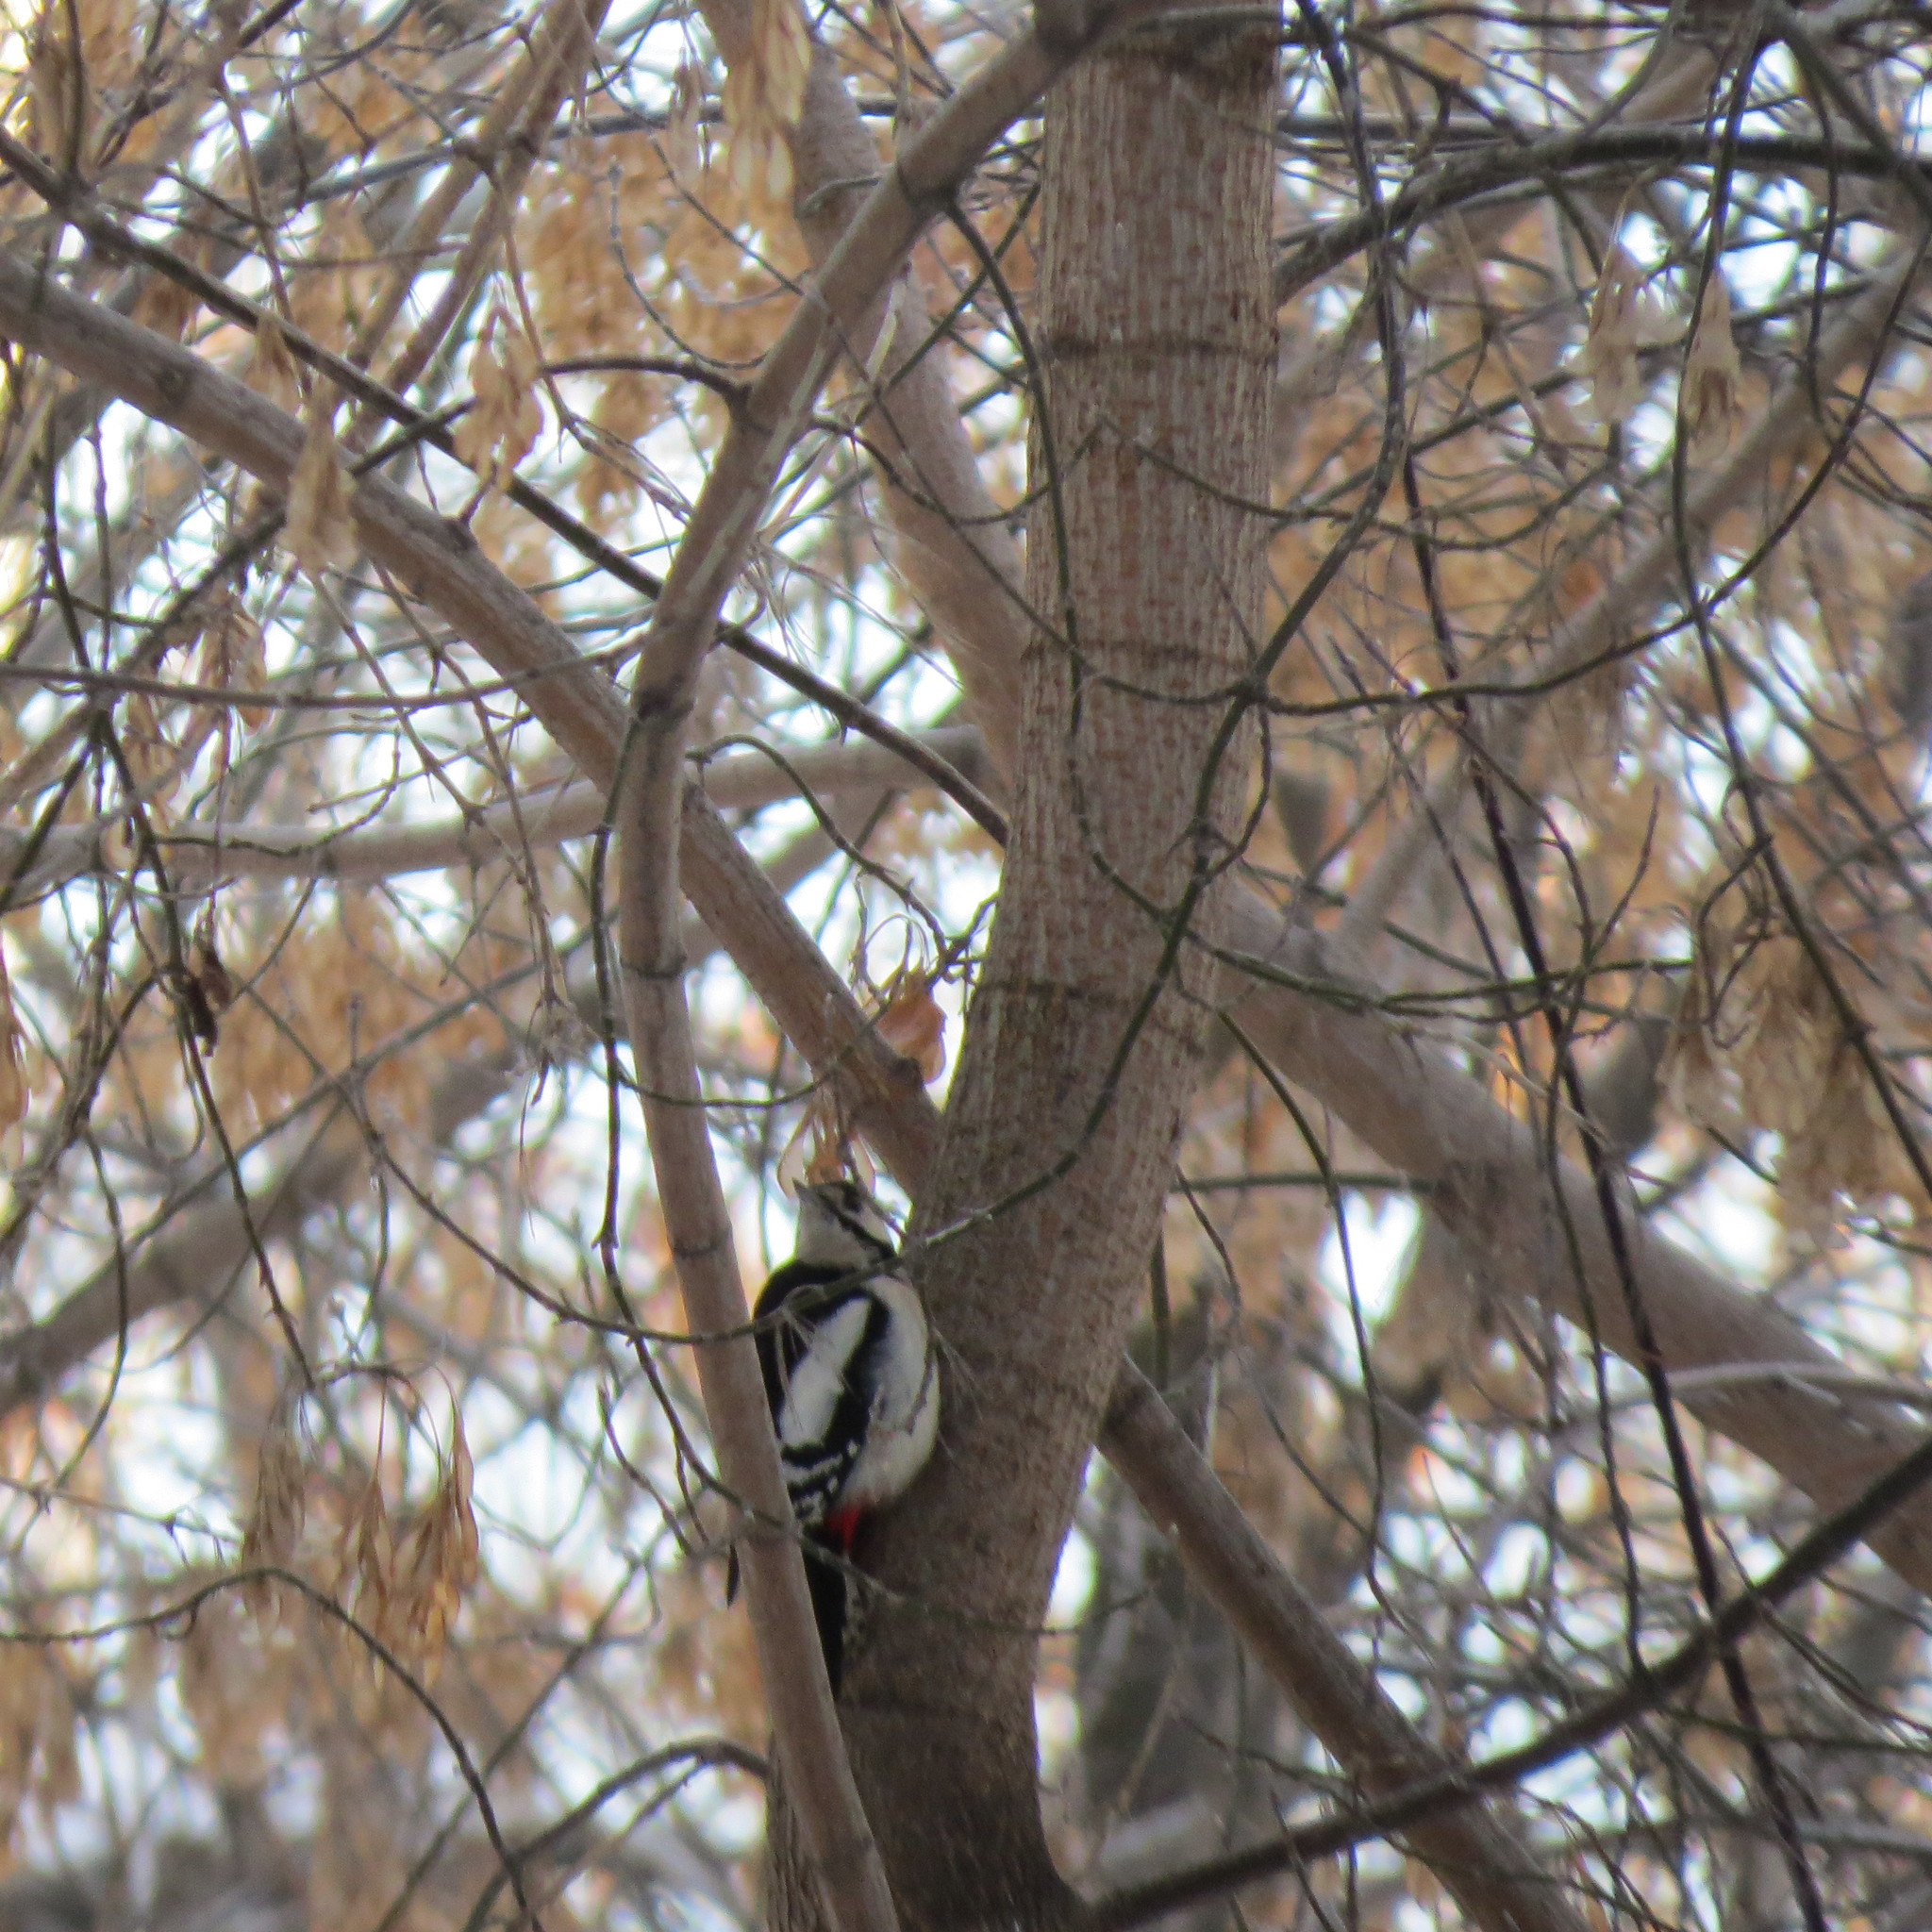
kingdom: Animalia
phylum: Chordata
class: Aves
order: Piciformes
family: Picidae
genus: Dendrocopos
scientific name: Dendrocopos major
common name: Great spotted woodpecker
